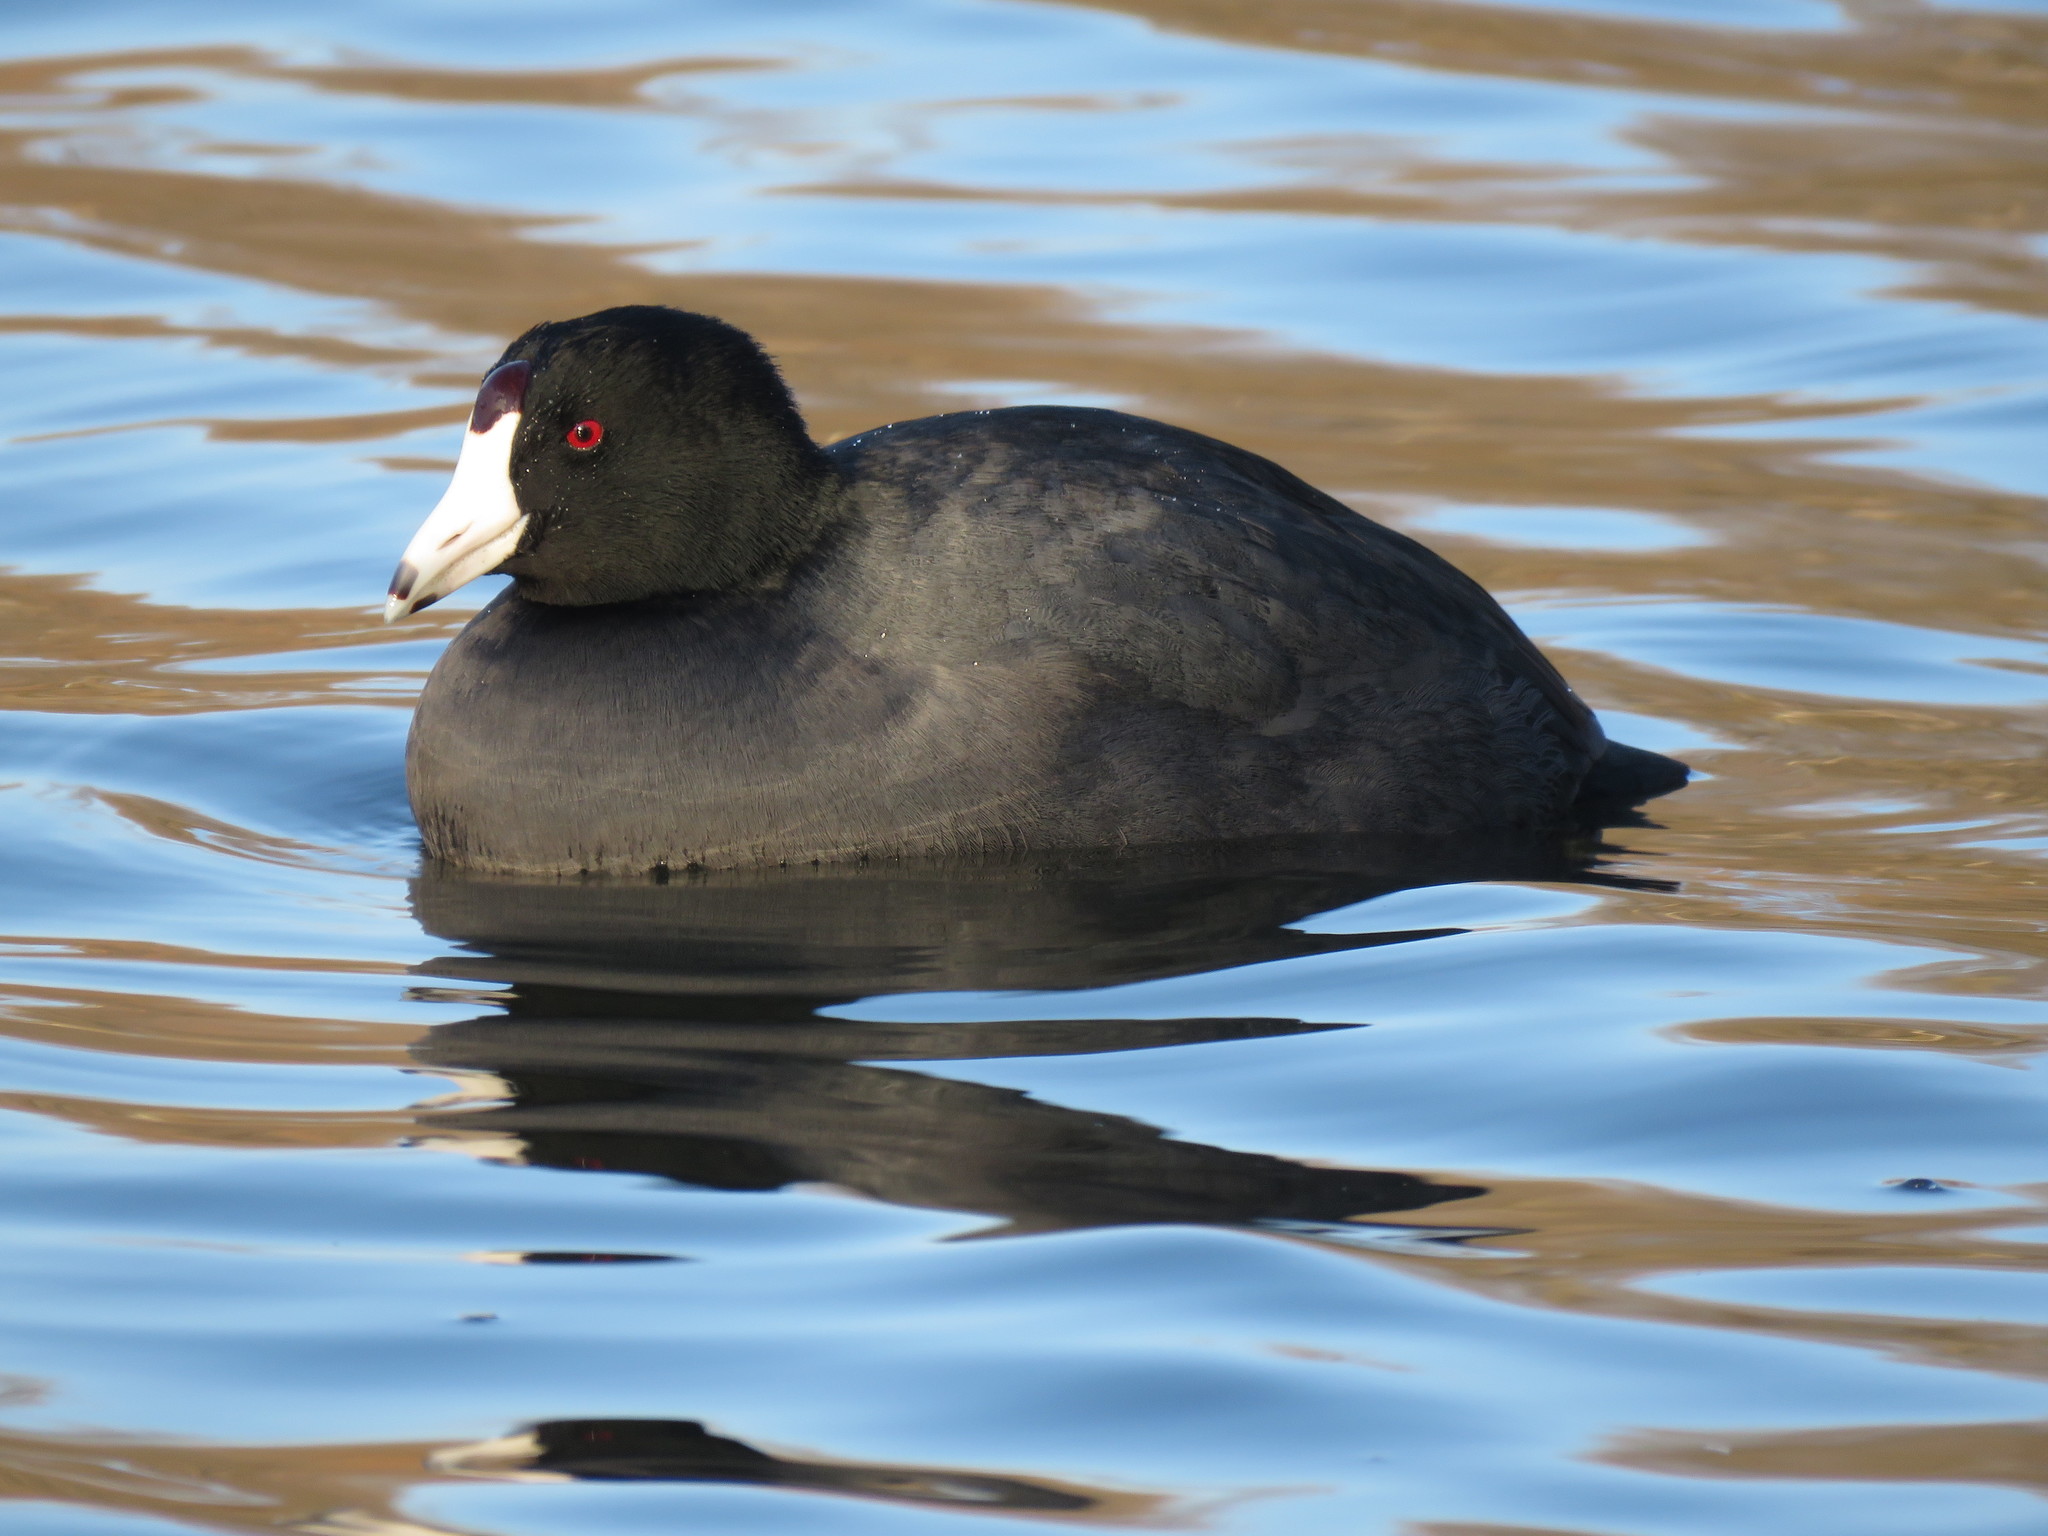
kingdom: Animalia
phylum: Chordata
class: Aves
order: Gruiformes
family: Rallidae
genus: Fulica
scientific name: Fulica americana
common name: American coot
